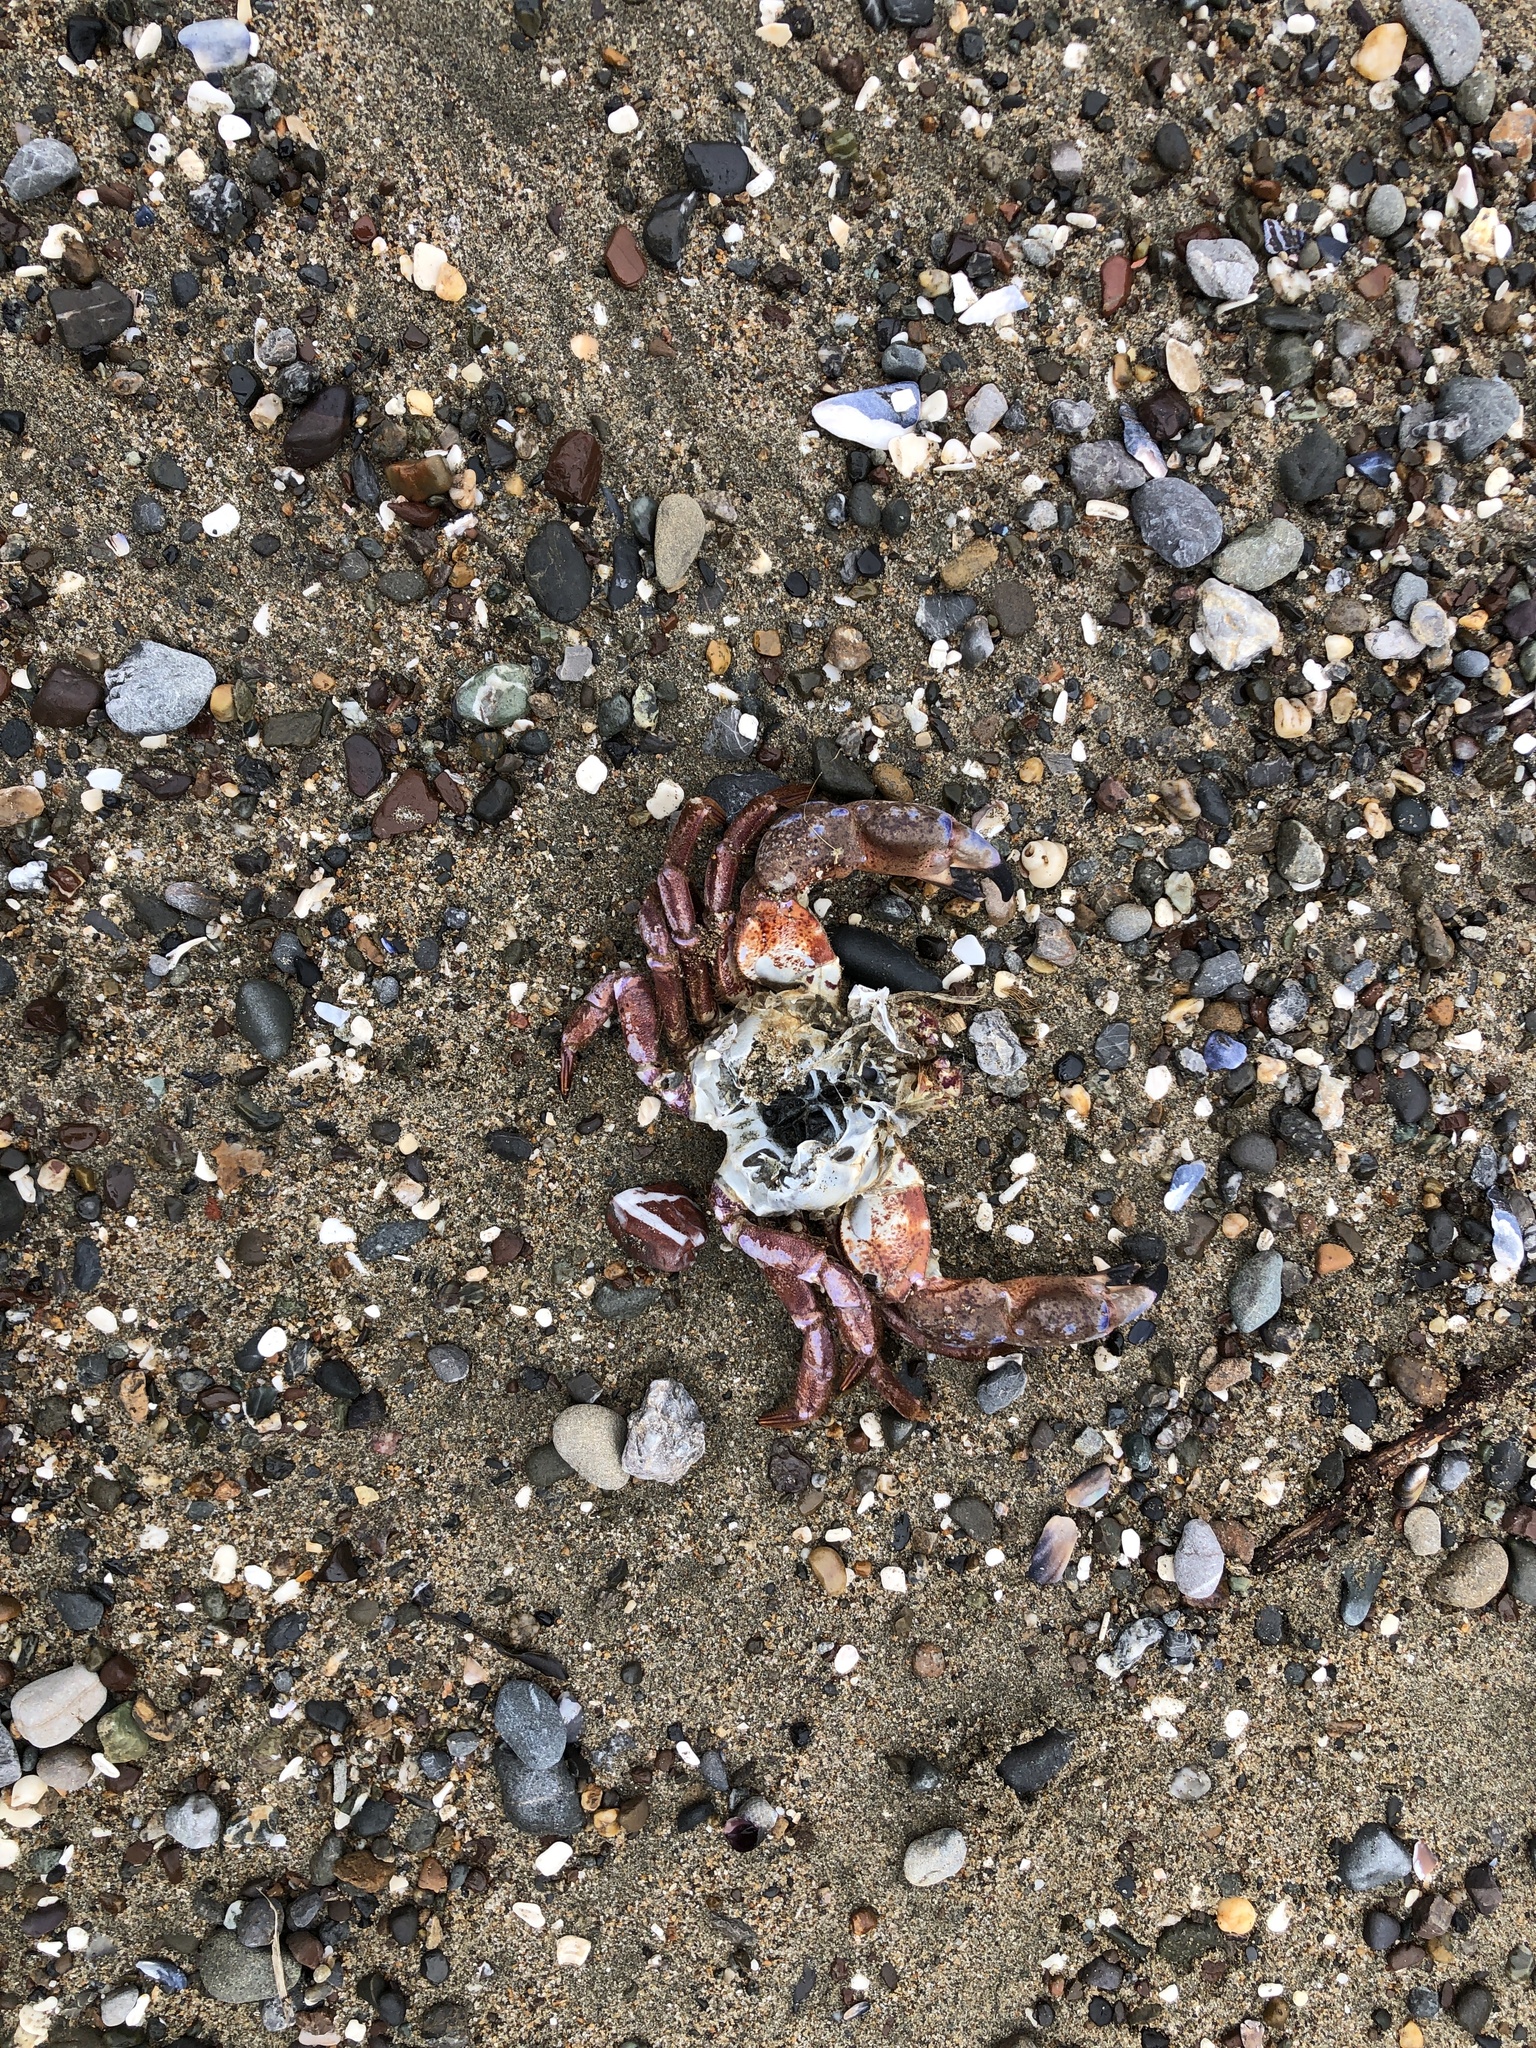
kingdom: Animalia
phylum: Arthropoda
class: Malacostraca
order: Decapoda
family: Cancridae
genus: Romaleon
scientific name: Romaleon antennarium
